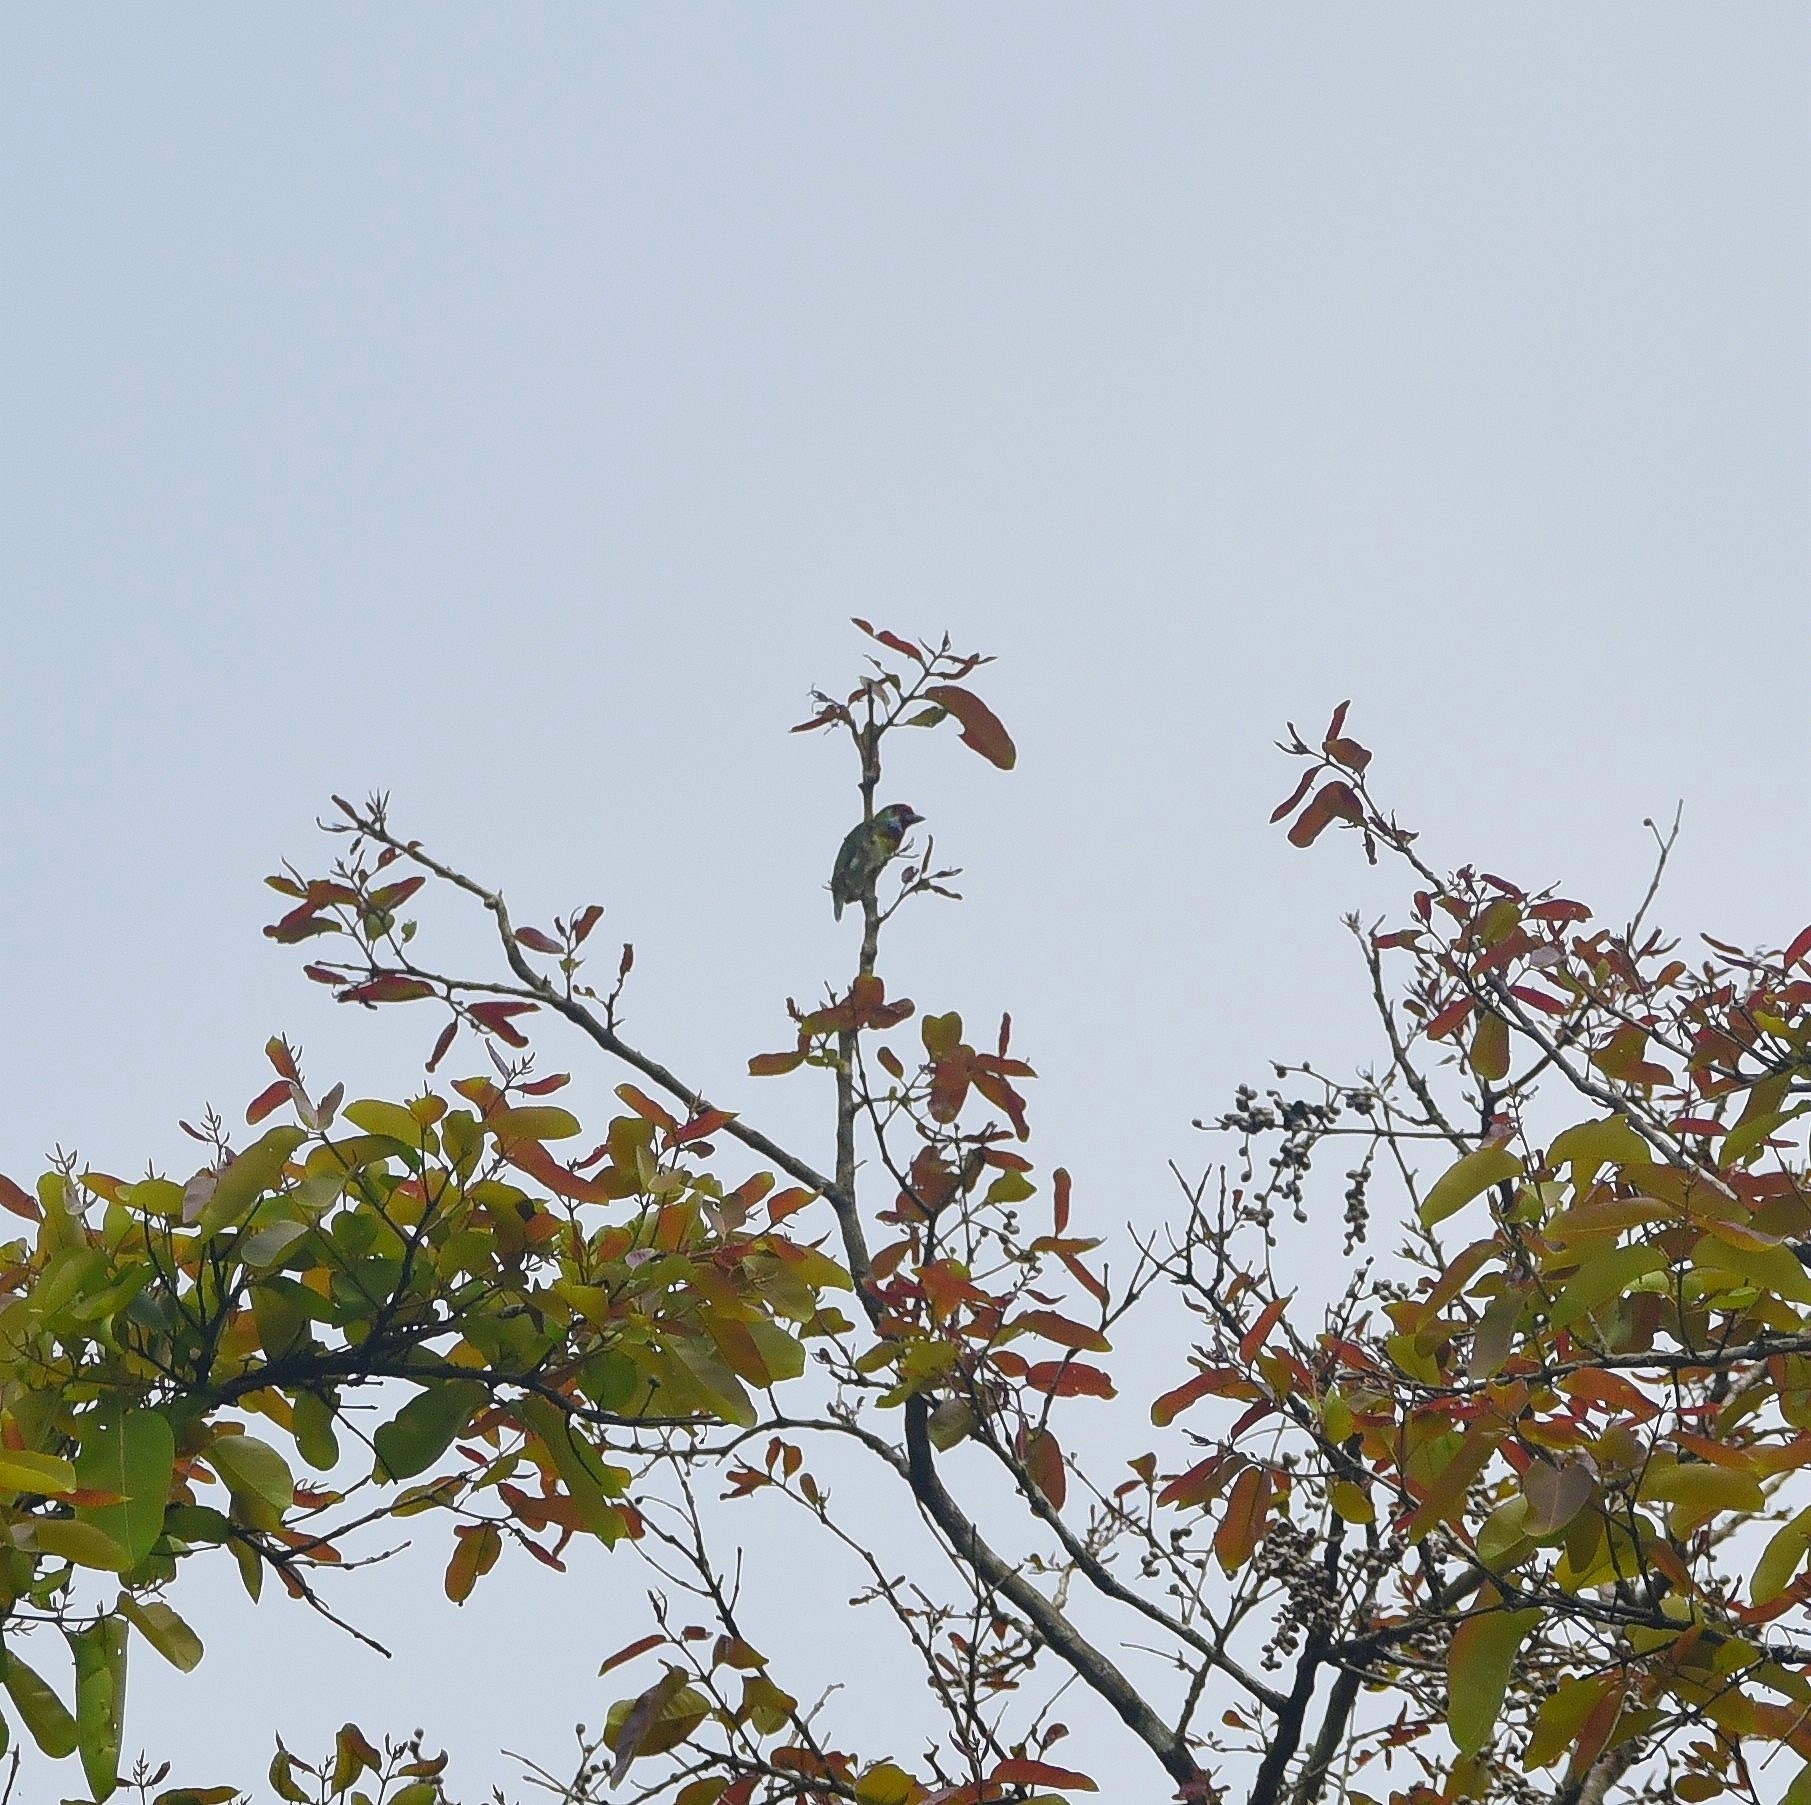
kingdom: Animalia
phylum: Chordata
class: Aves
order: Piciformes
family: Megalaimidae
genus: Psilopogon
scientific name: Psilopogon malabaricus
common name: Malabar barbet
